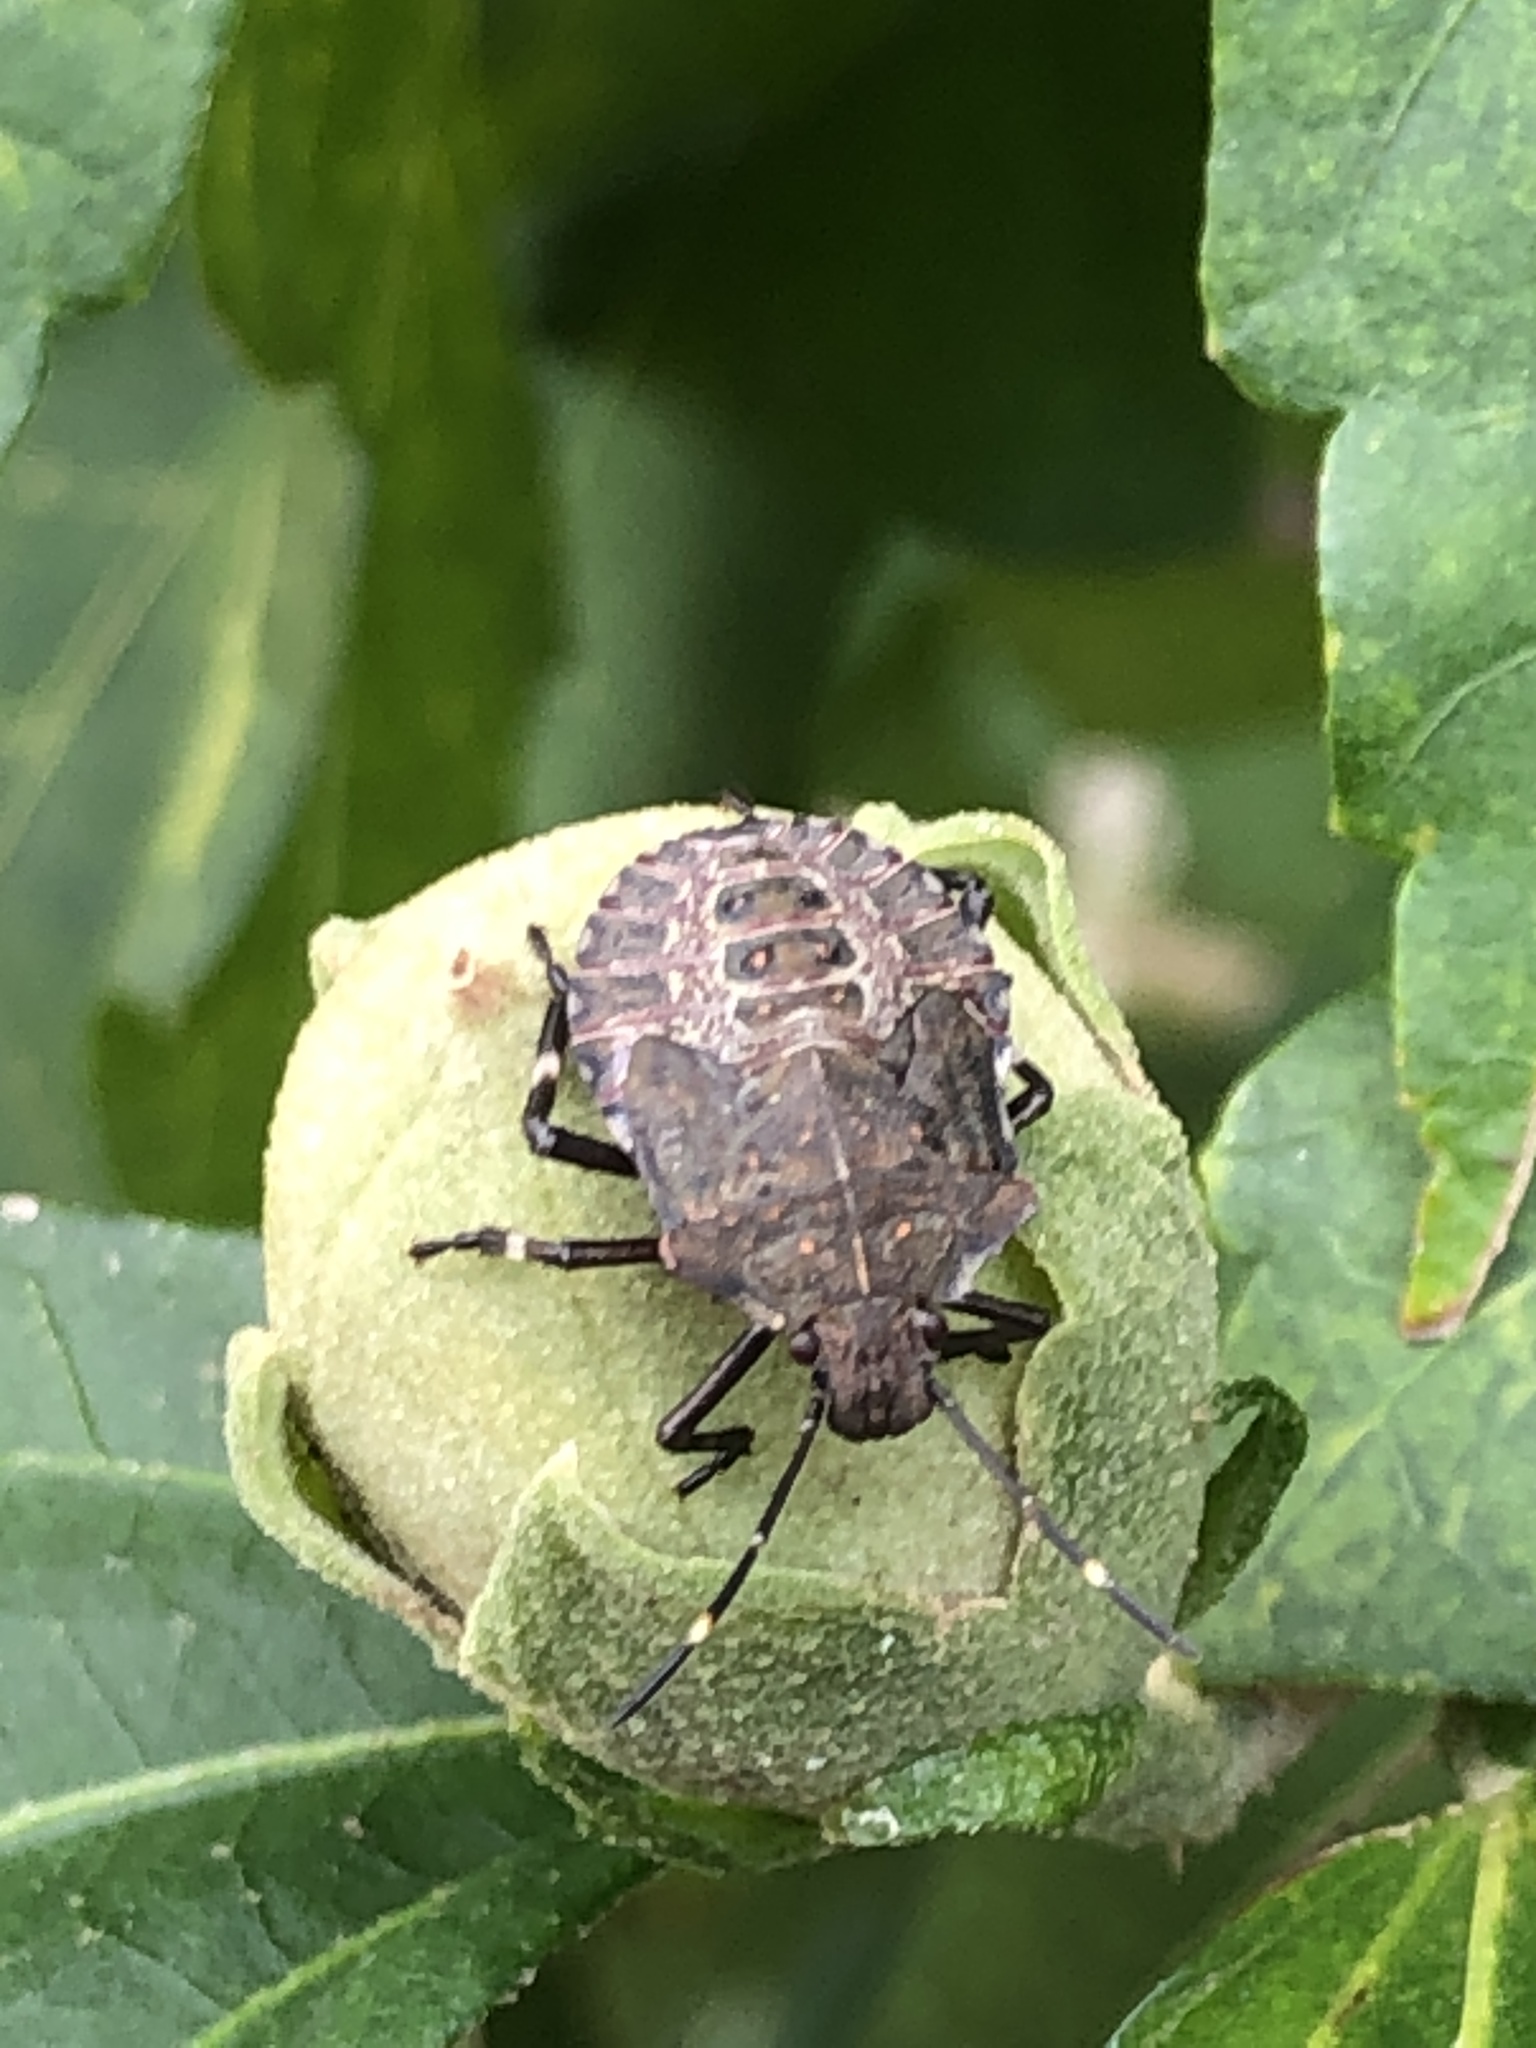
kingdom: Animalia
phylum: Arthropoda
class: Insecta
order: Hemiptera
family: Pentatomidae
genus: Halyomorpha
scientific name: Halyomorpha halys
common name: Brown marmorated stink bug
